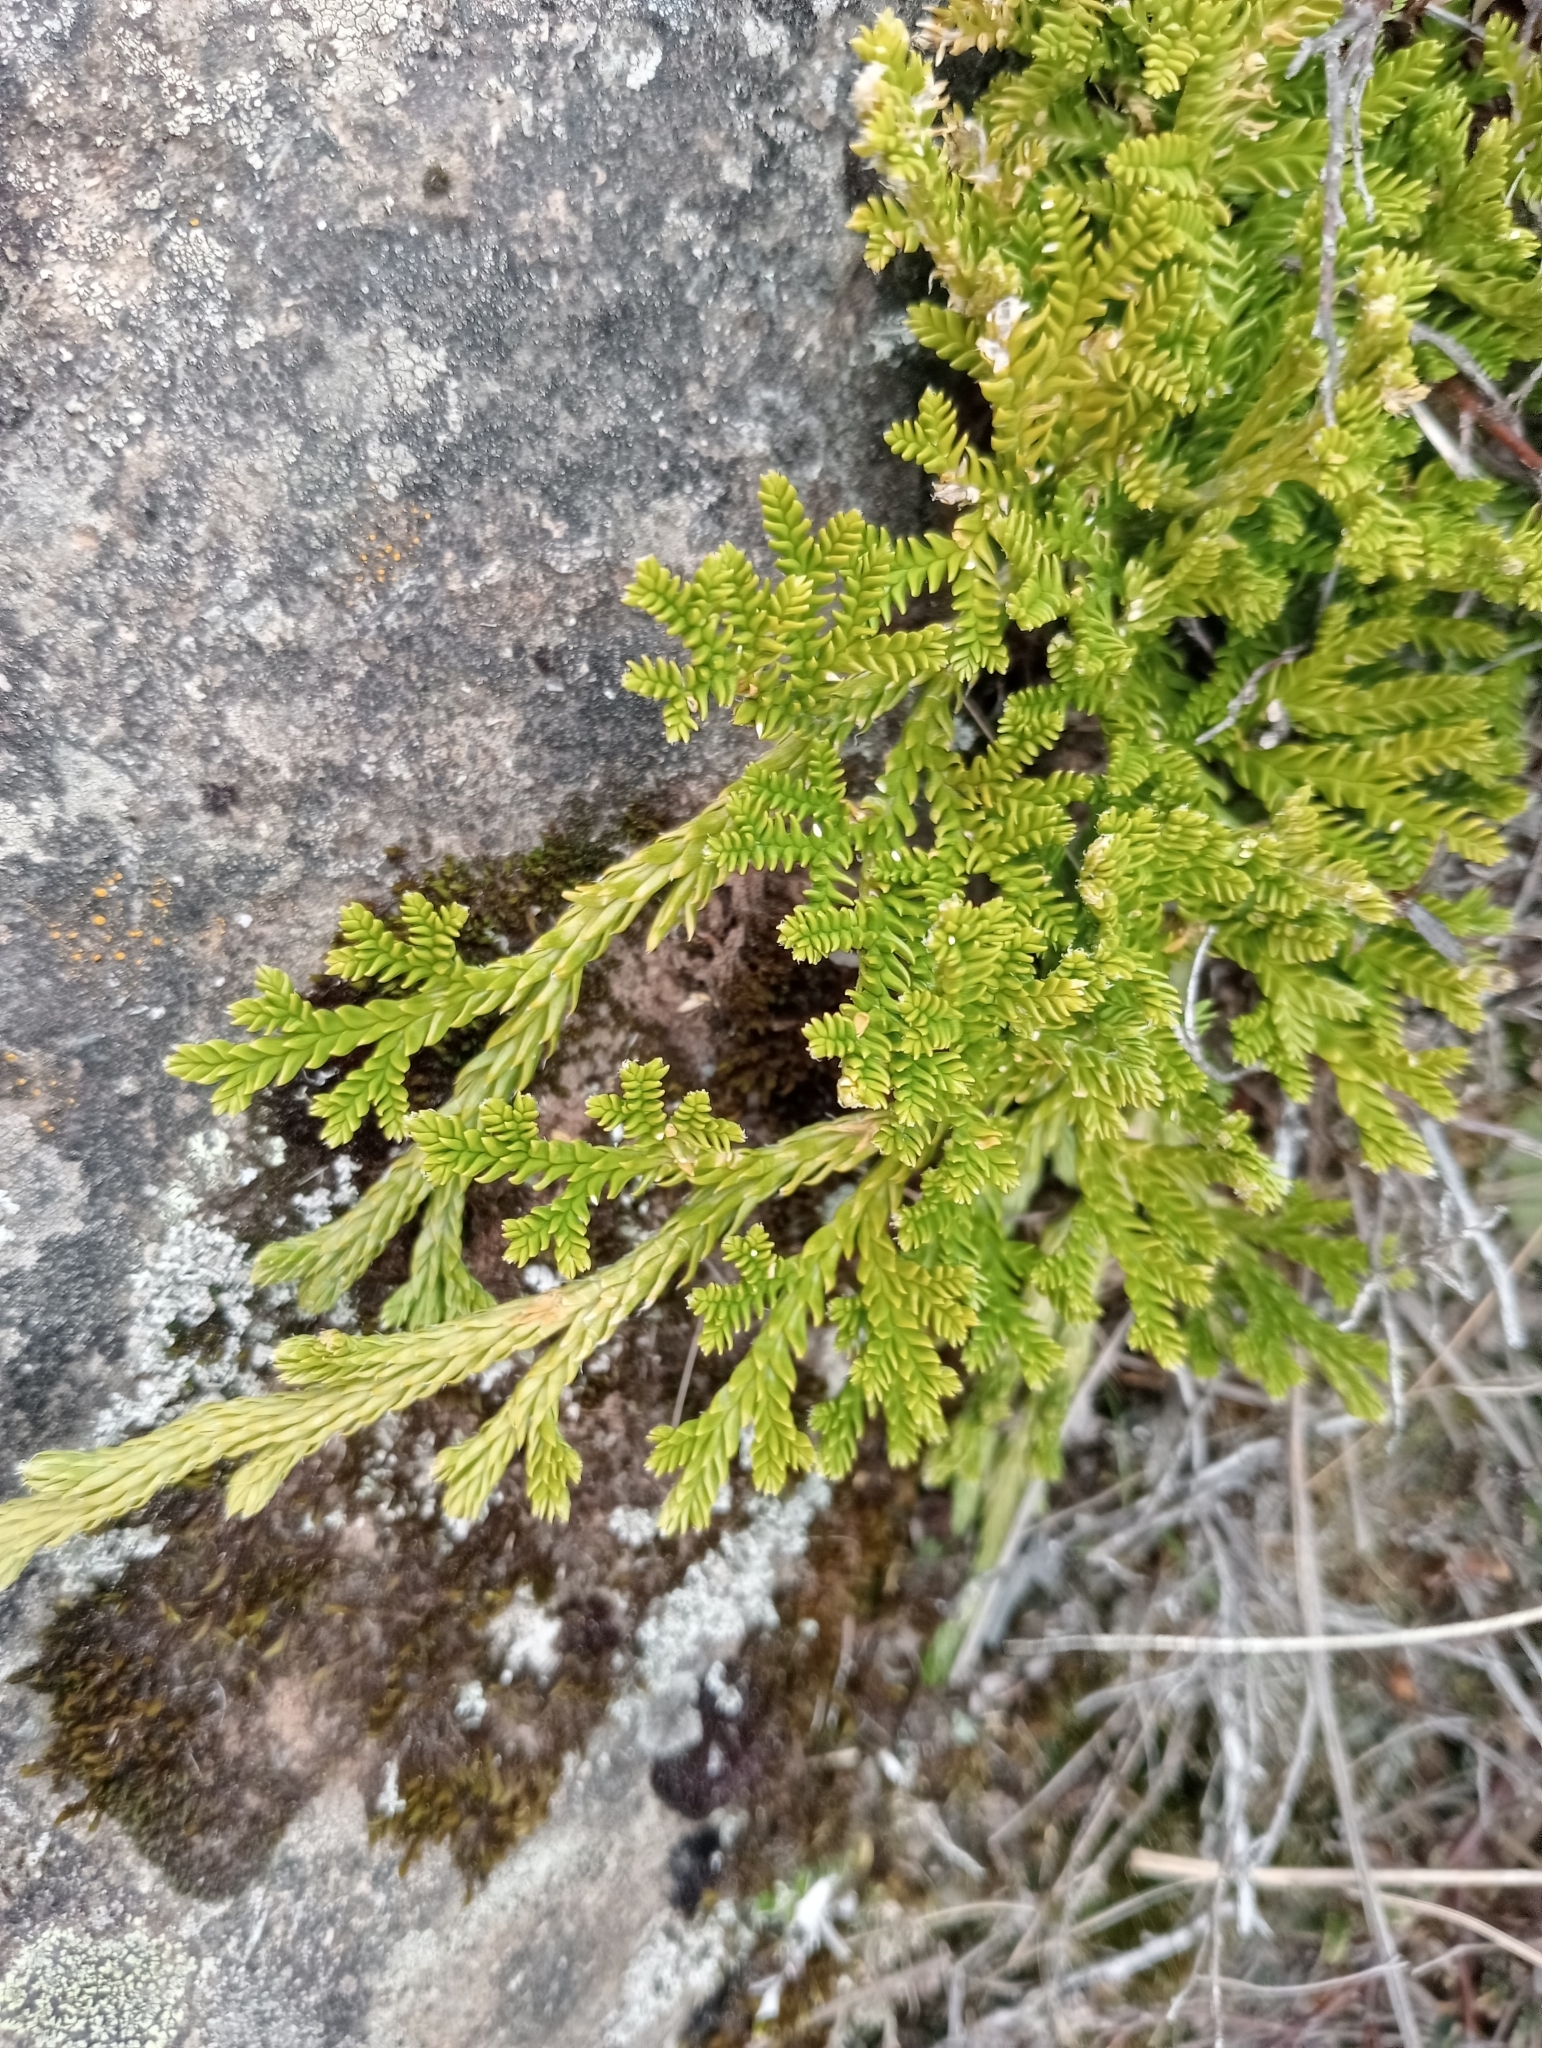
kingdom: Plantae
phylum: Tracheophyta
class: Lycopodiopsida
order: Lycopodiales
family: Lycopodiaceae
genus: Diphasium
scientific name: Diphasium scariosum
